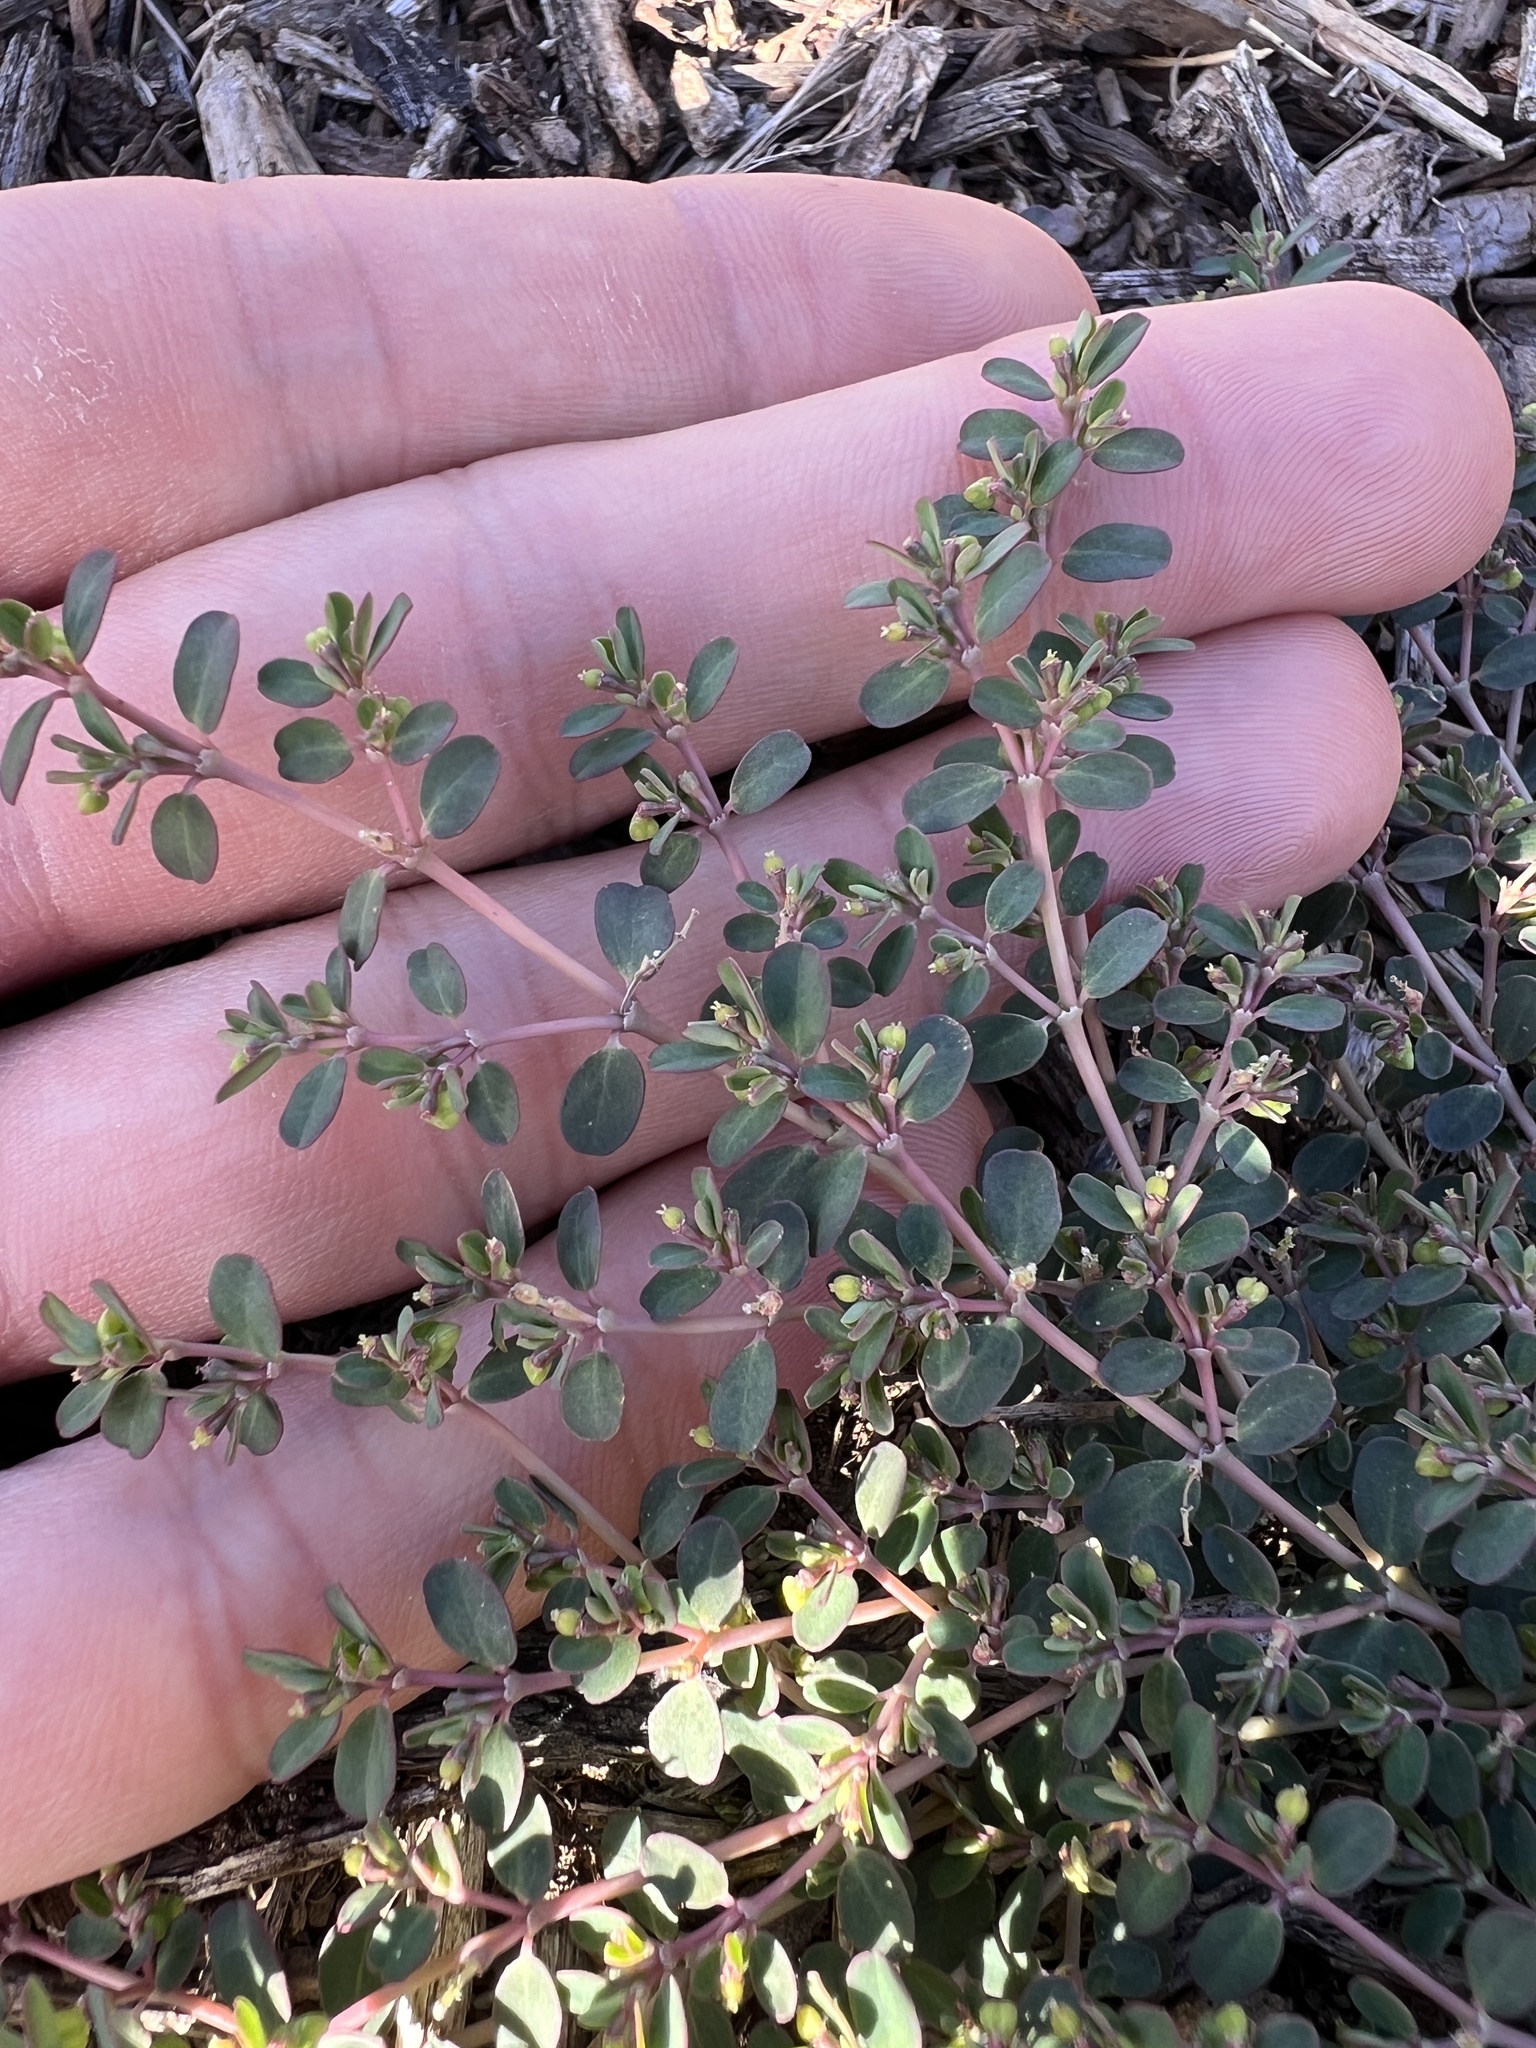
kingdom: Plantae
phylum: Tracheophyta
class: Magnoliopsida
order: Malpighiales
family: Euphorbiaceae
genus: Euphorbia
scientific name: Euphorbia serpens
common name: Matted sandmat
